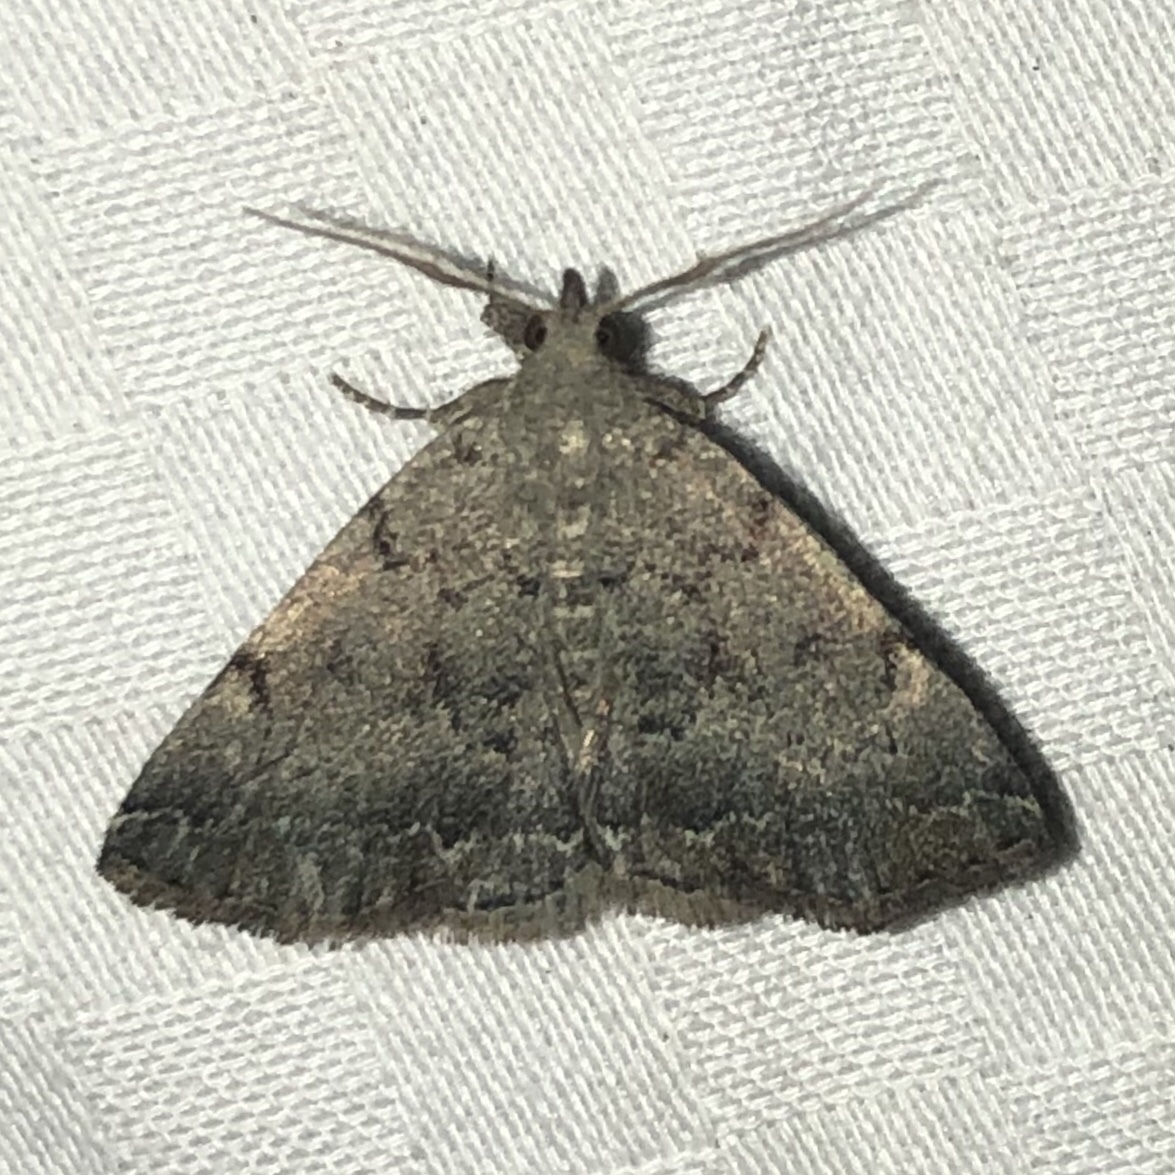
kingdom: Animalia
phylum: Arthropoda
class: Insecta
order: Lepidoptera
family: Erebidae
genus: Zanclognatha
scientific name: Zanclognatha theralis
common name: Flagged fan-foot
